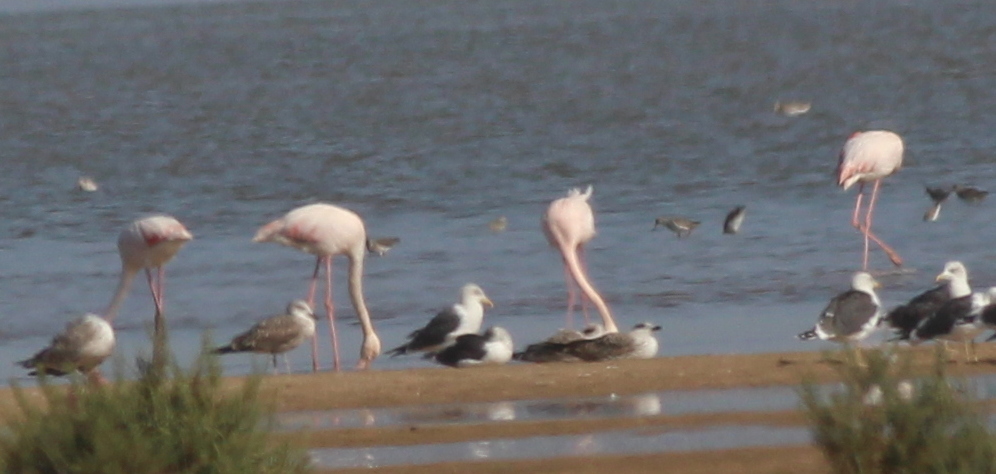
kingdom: Animalia
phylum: Chordata
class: Aves
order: Phoenicopteriformes
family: Phoenicopteridae
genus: Phoenicopterus
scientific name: Phoenicopterus roseus
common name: Greater flamingo
